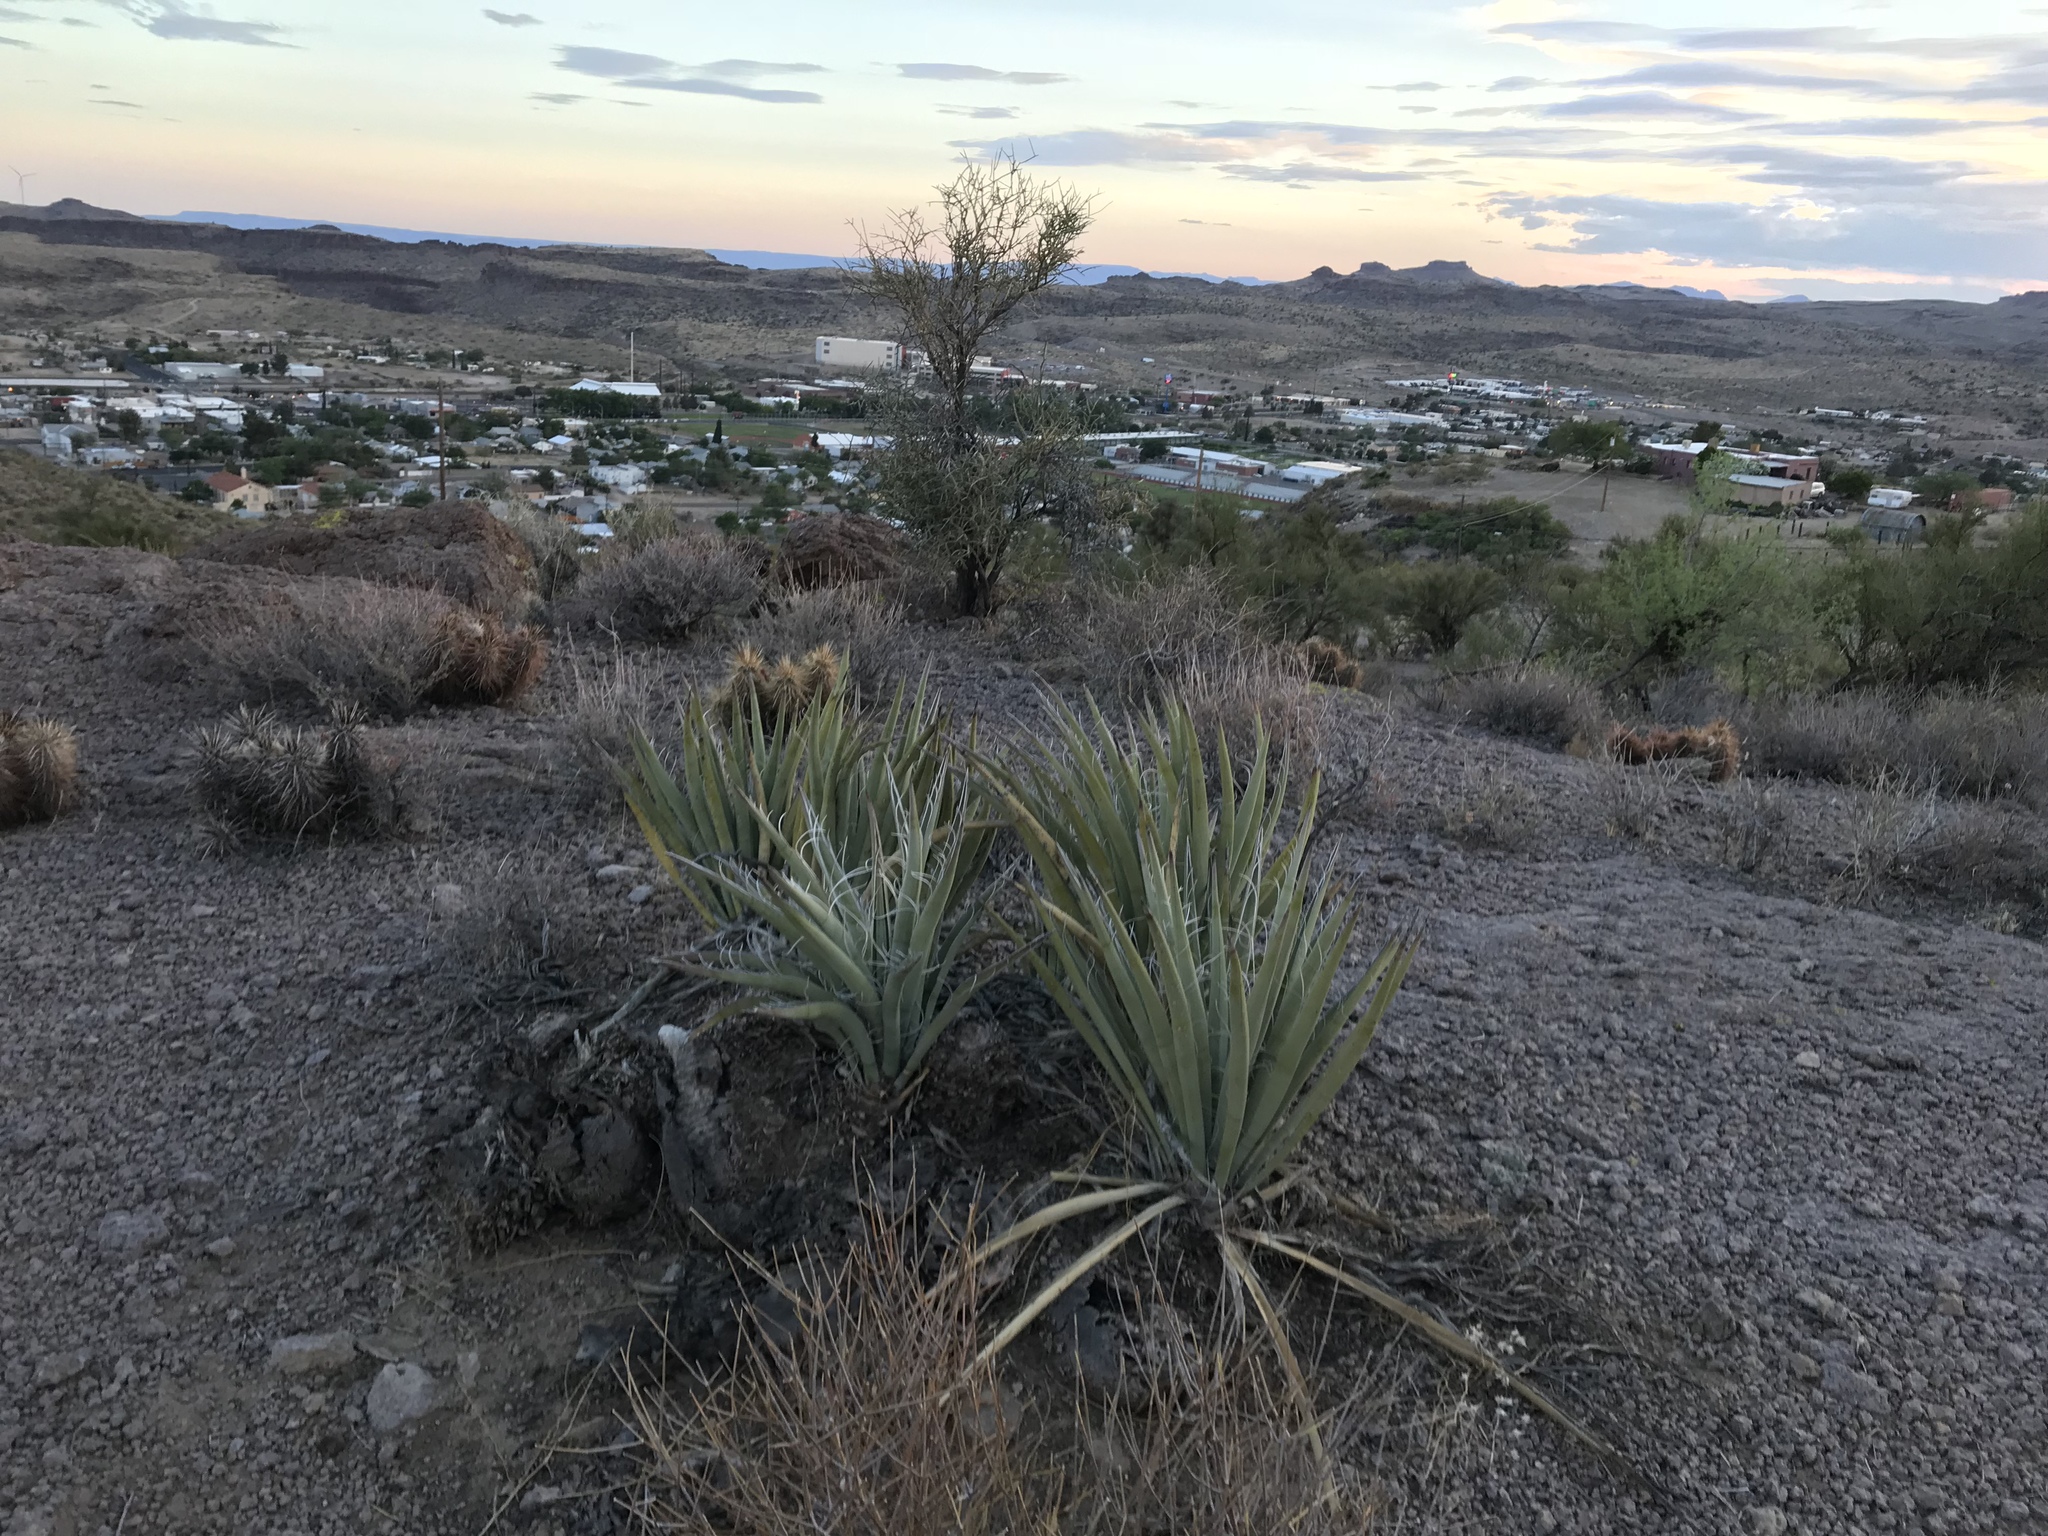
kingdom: Plantae
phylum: Tracheophyta
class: Liliopsida
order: Asparagales
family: Asparagaceae
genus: Yucca
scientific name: Yucca baccata
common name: Banana yucca
